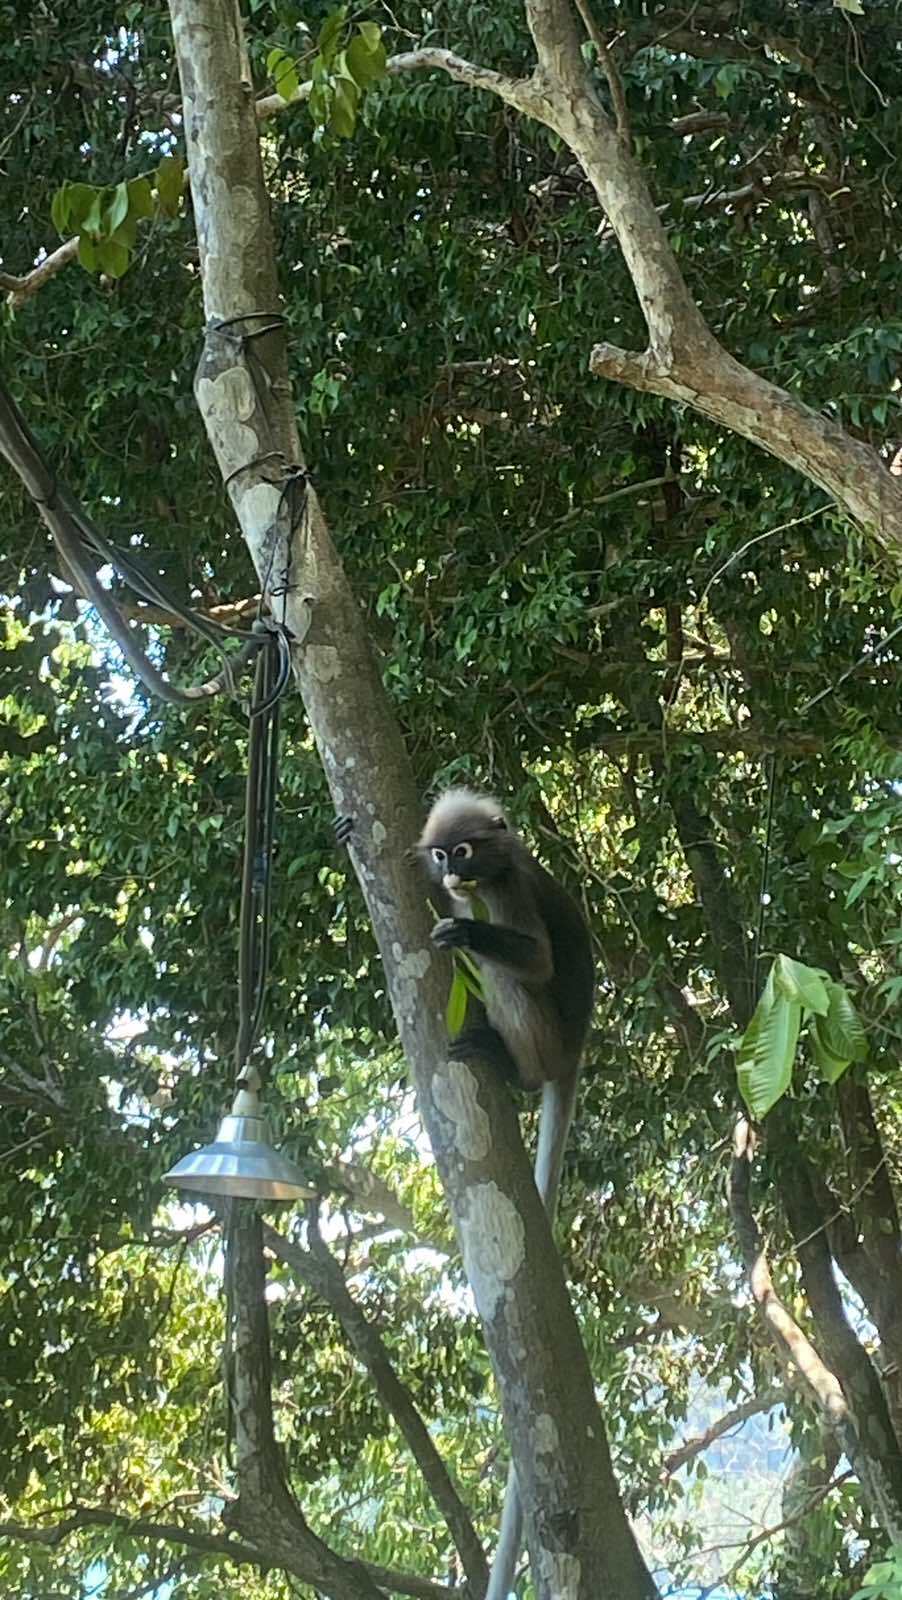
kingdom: Animalia
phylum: Chordata
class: Mammalia
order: Primates
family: Cercopithecidae
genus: Trachypithecus
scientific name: Trachypithecus obscurus
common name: Dusky leaf-monkey
